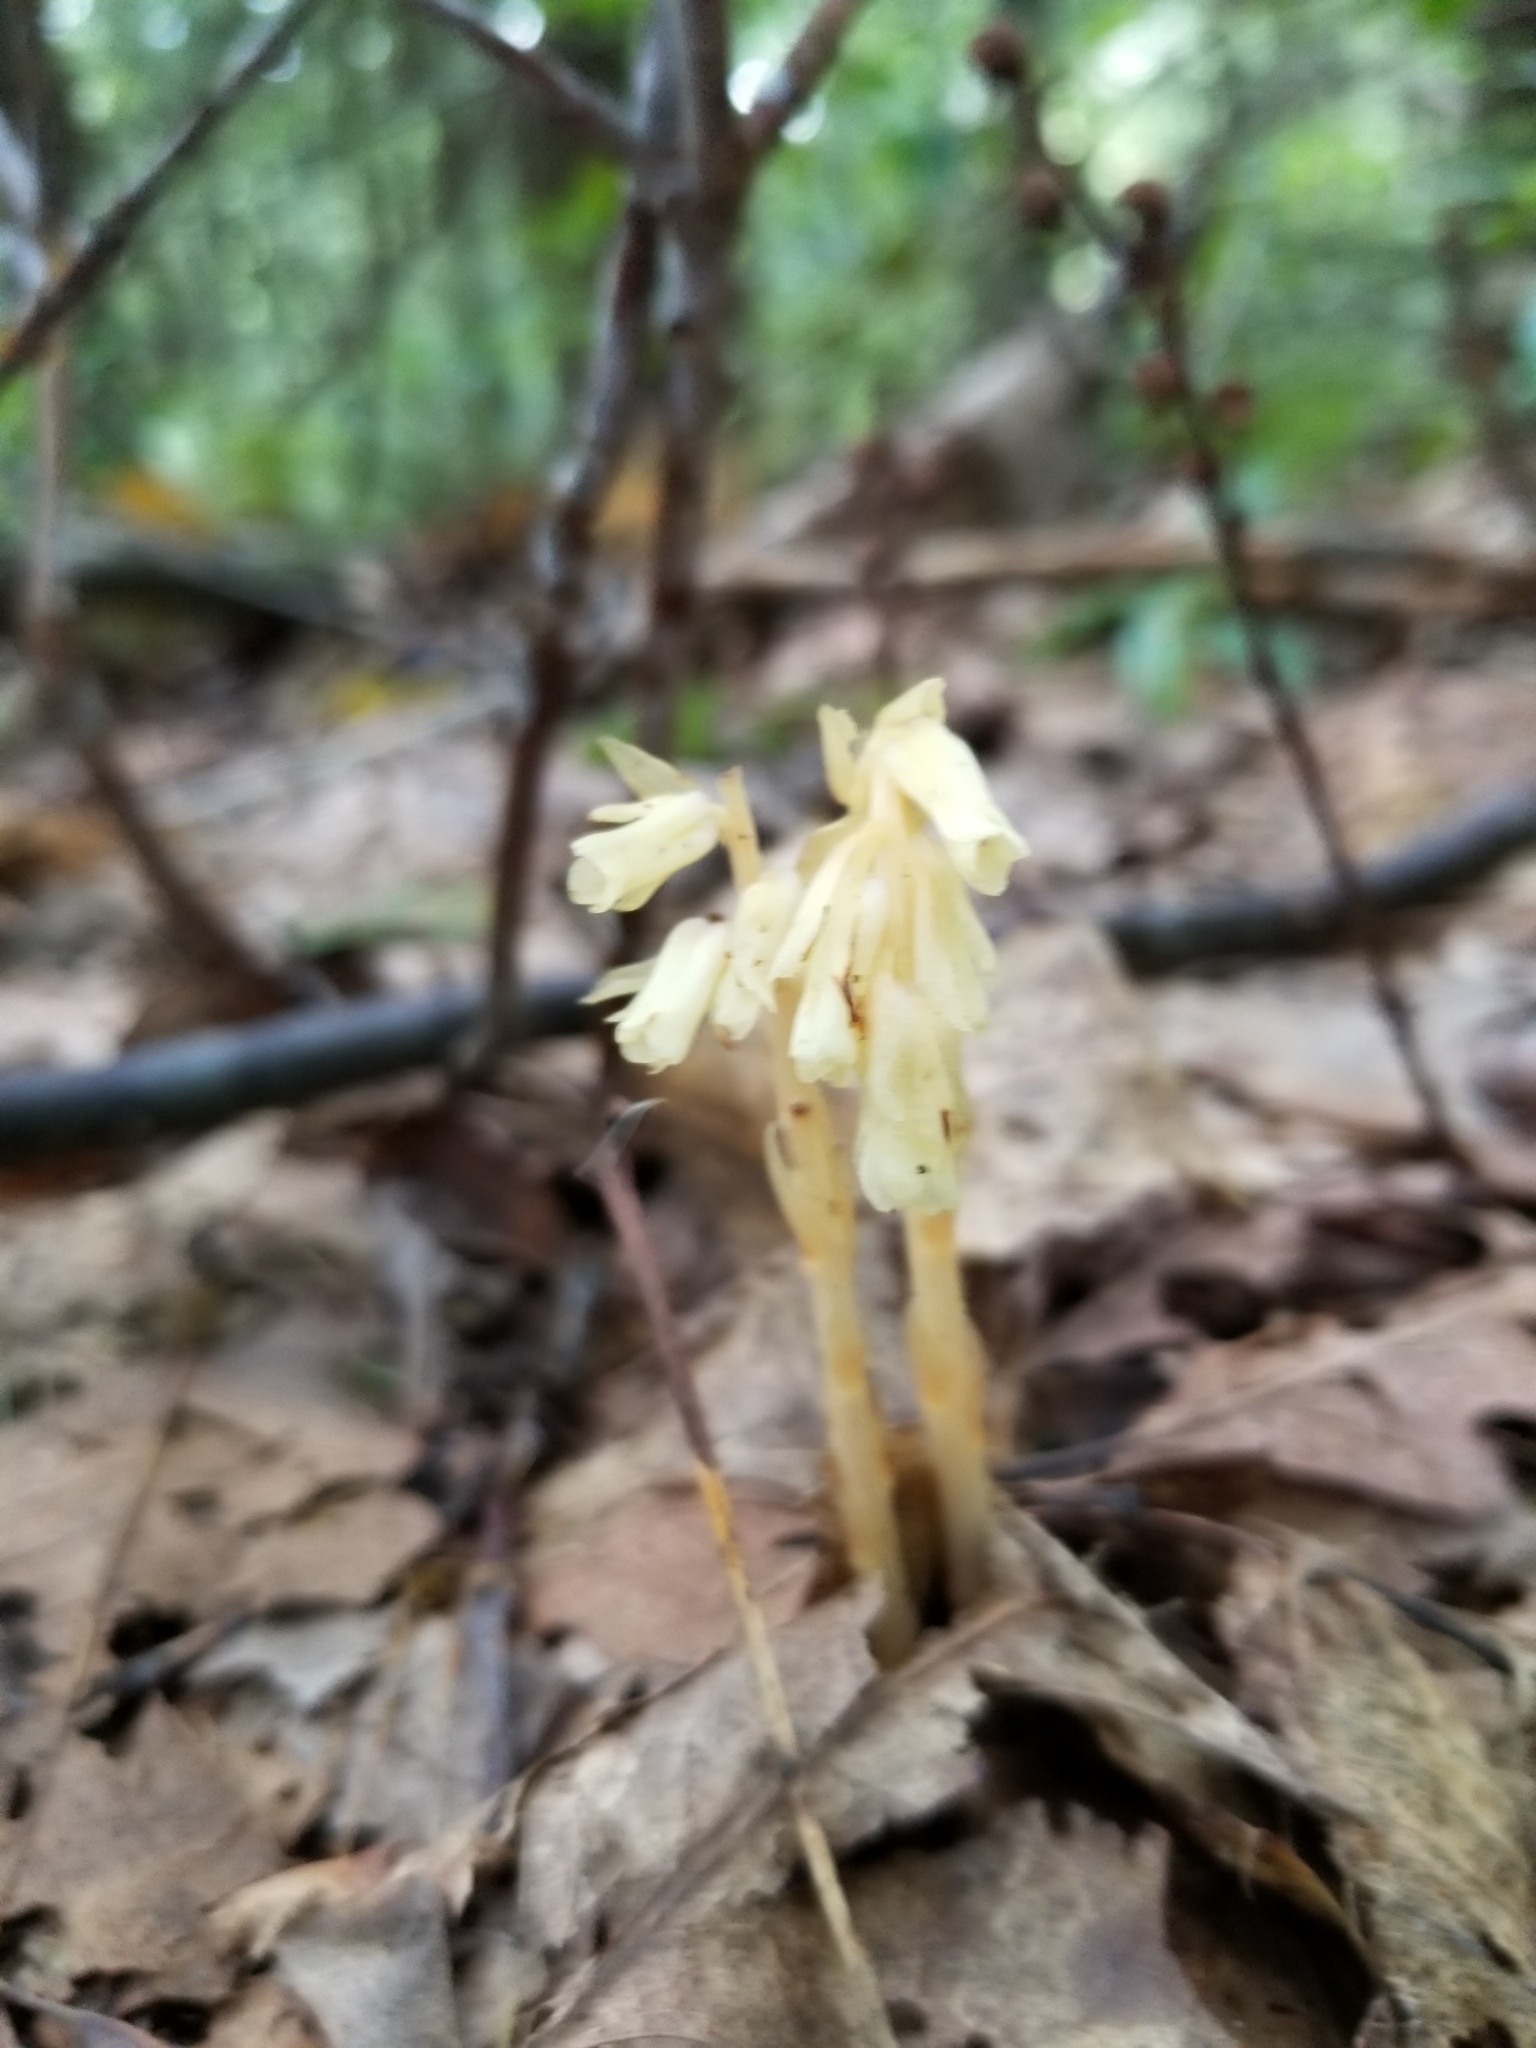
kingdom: Plantae
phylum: Tracheophyta
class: Magnoliopsida
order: Ericales
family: Ericaceae
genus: Hypopitys
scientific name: Hypopitys monotropa
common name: Yellow bird's-nest
